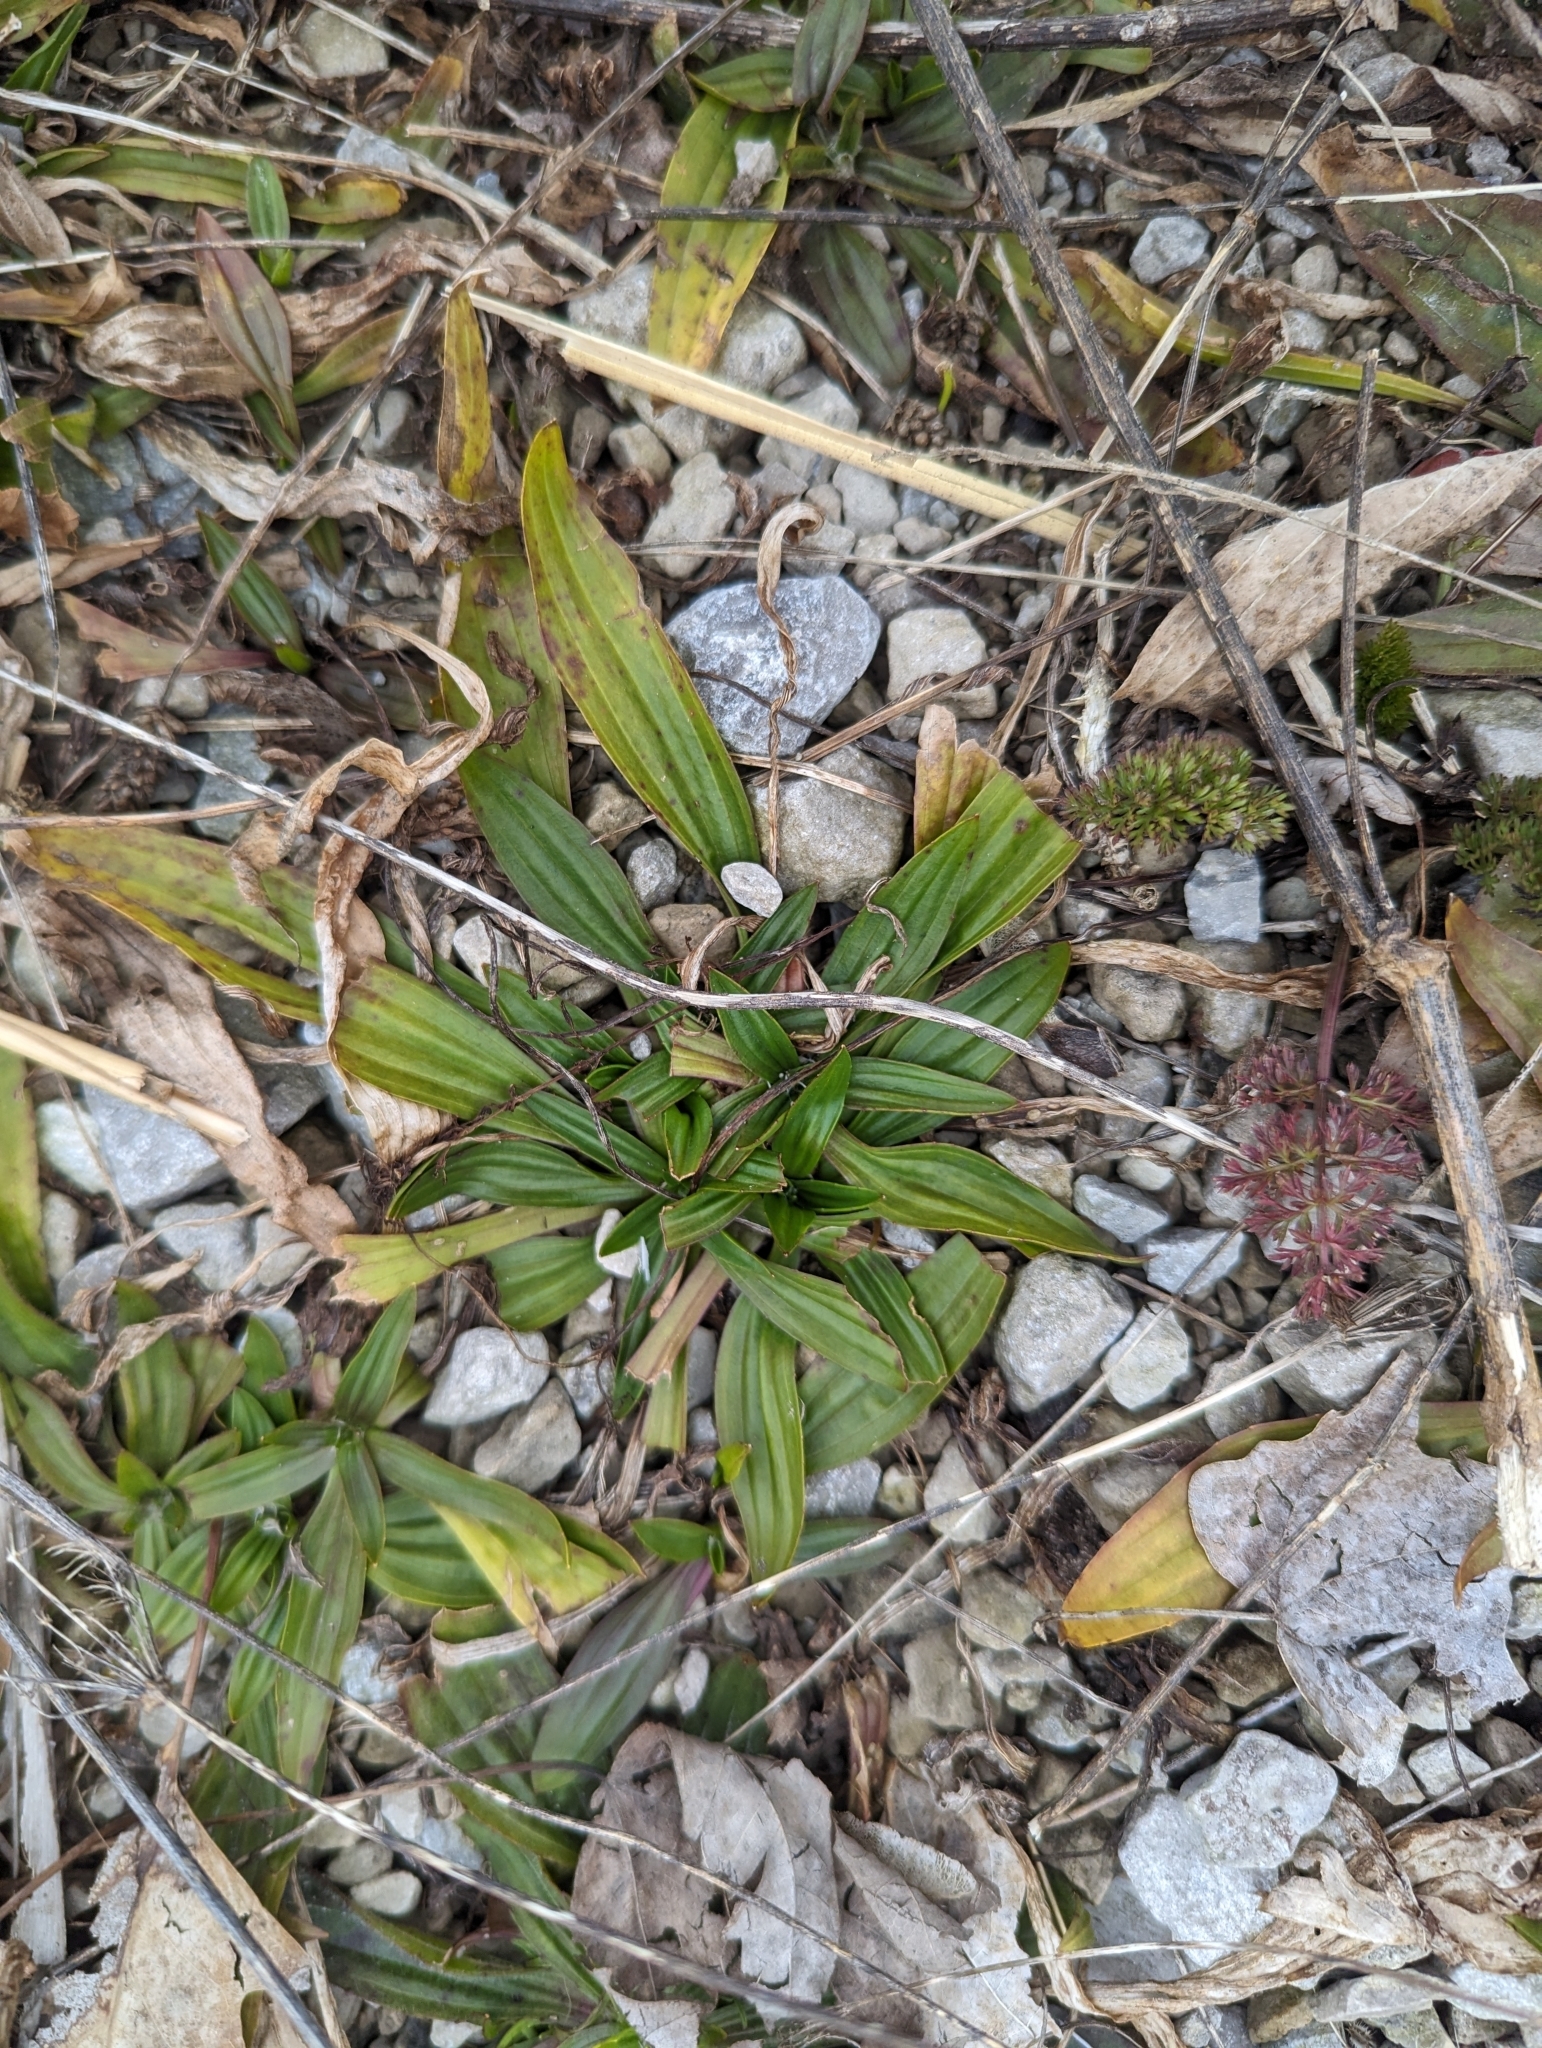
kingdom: Plantae
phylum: Tracheophyta
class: Magnoliopsida
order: Lamiales
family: Plantaginaceae
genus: Plantago
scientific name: Plantago lanceolata
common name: Ribwort plantain
